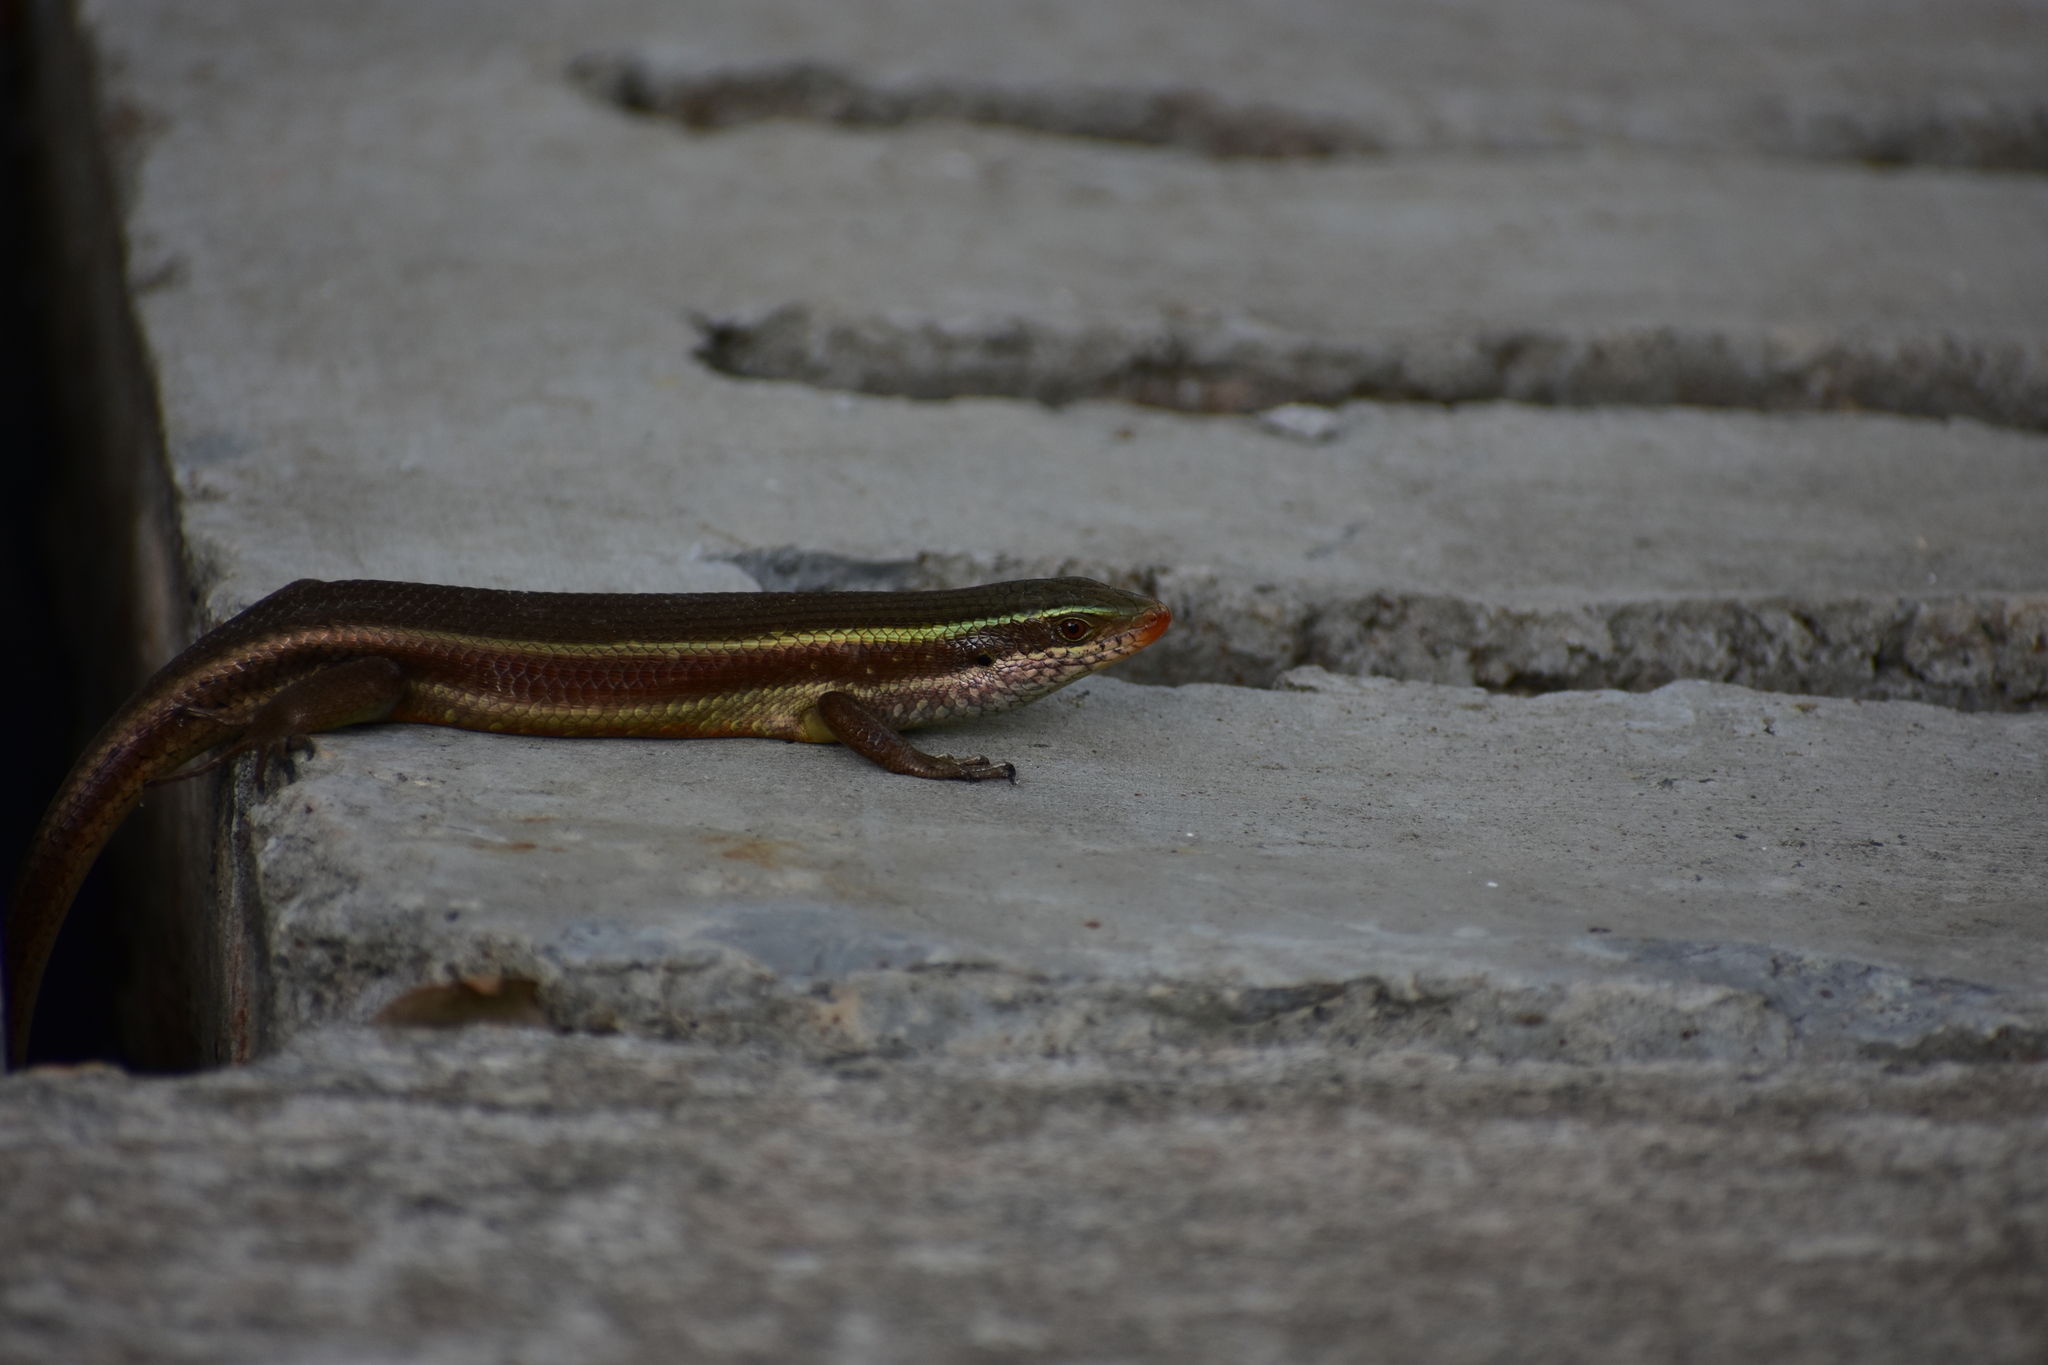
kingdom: Animalia
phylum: Chordata
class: Squamata
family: Scincidae
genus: Eutropis
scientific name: Eutropis carinata
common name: Keeled indian mabuya
